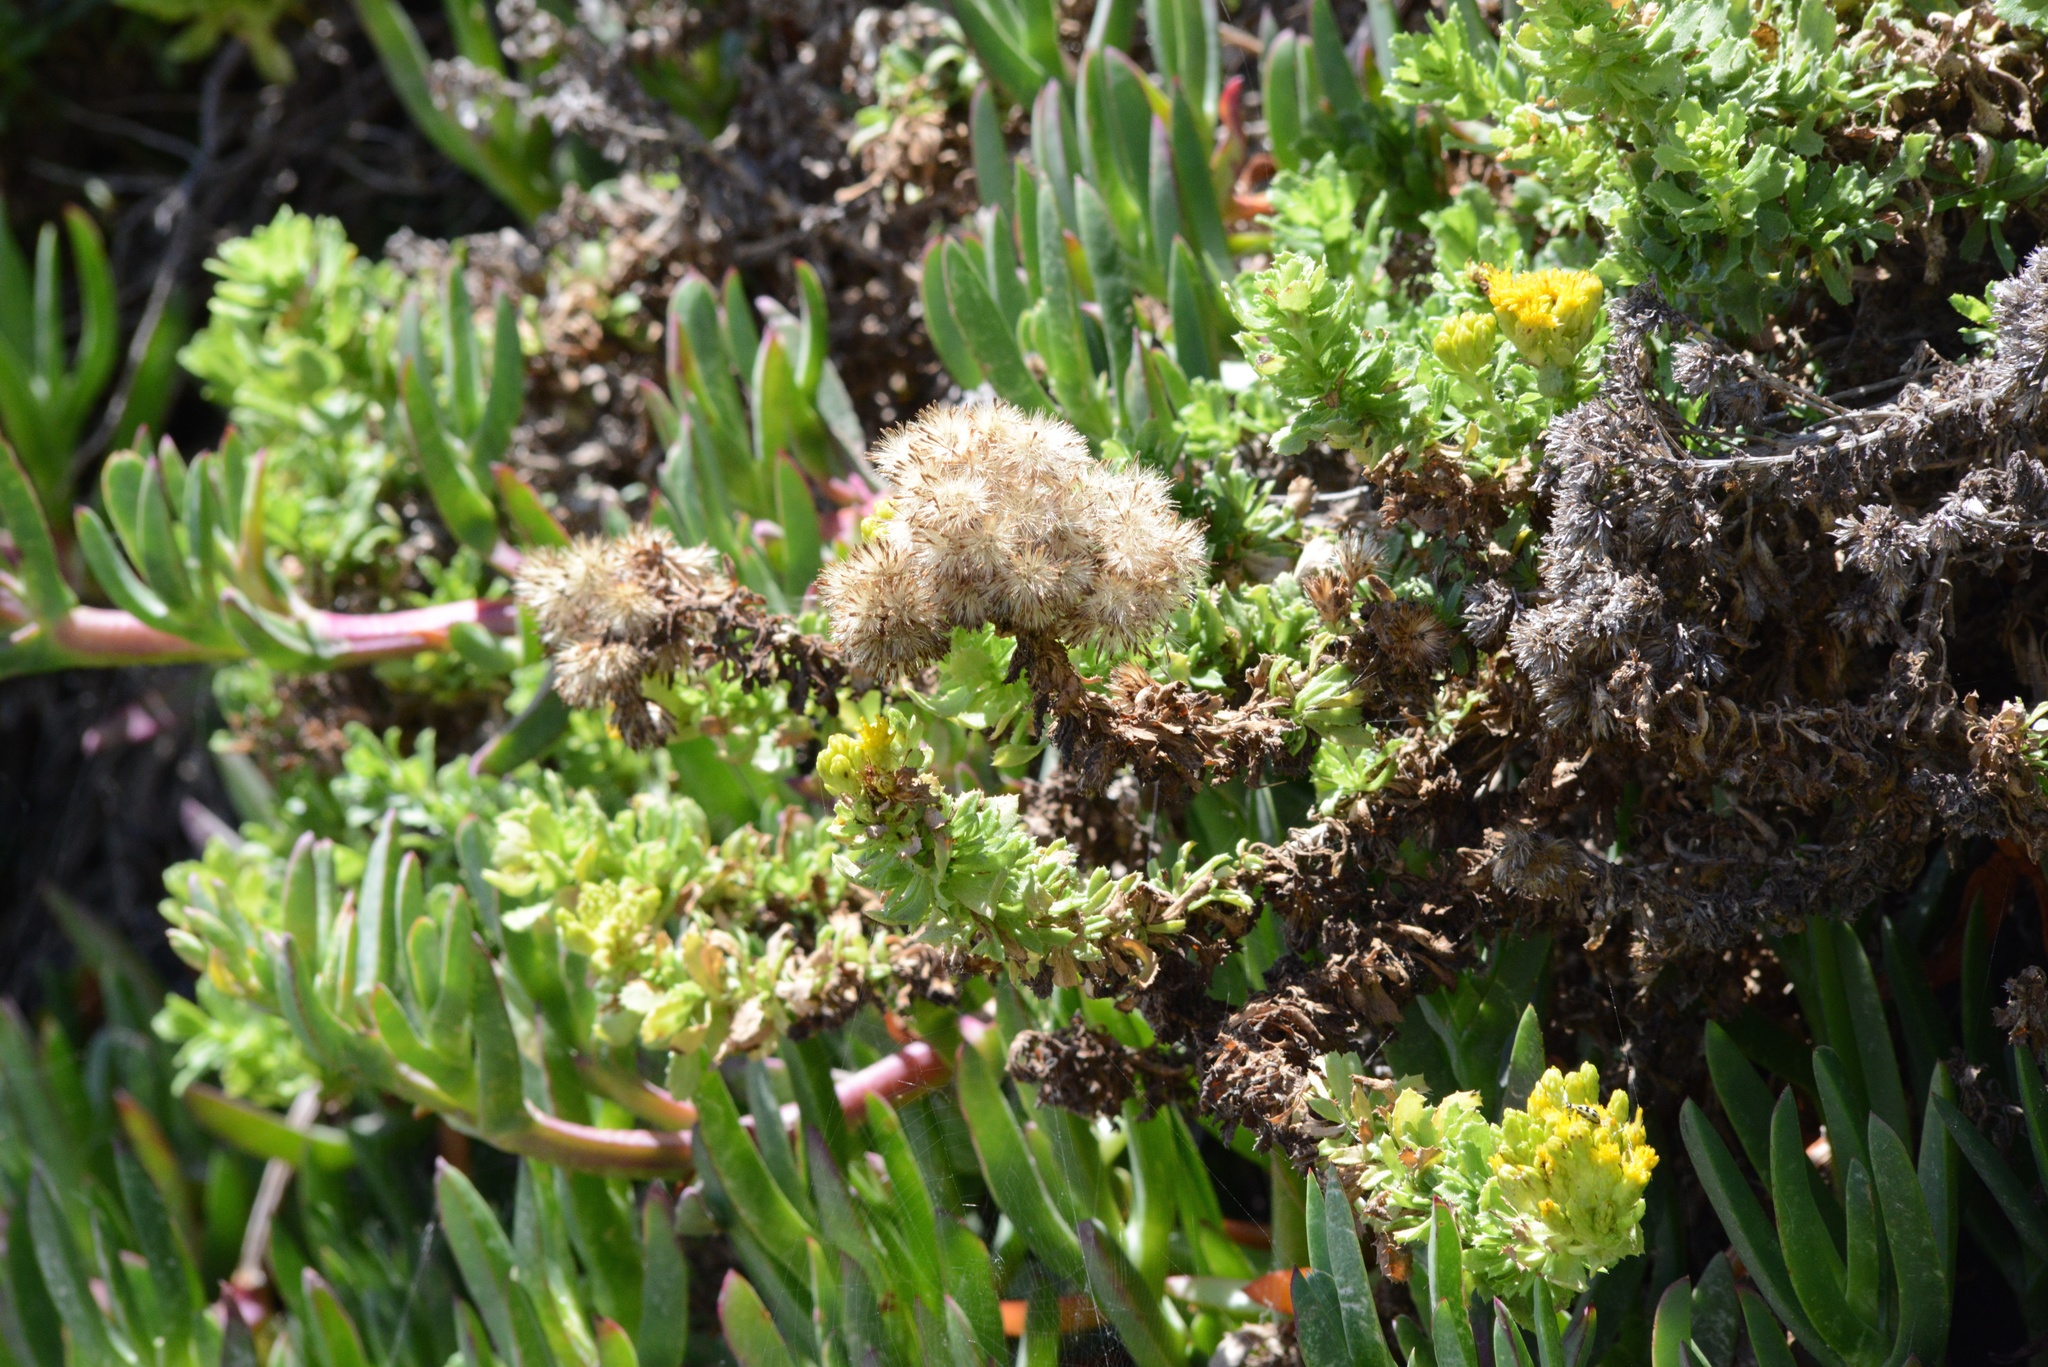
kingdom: Plantae
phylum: Tracheophyta
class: Magnoliopsida
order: Asterales
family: Asteraceae
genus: Isocoma
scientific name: Isocoma menziesii
